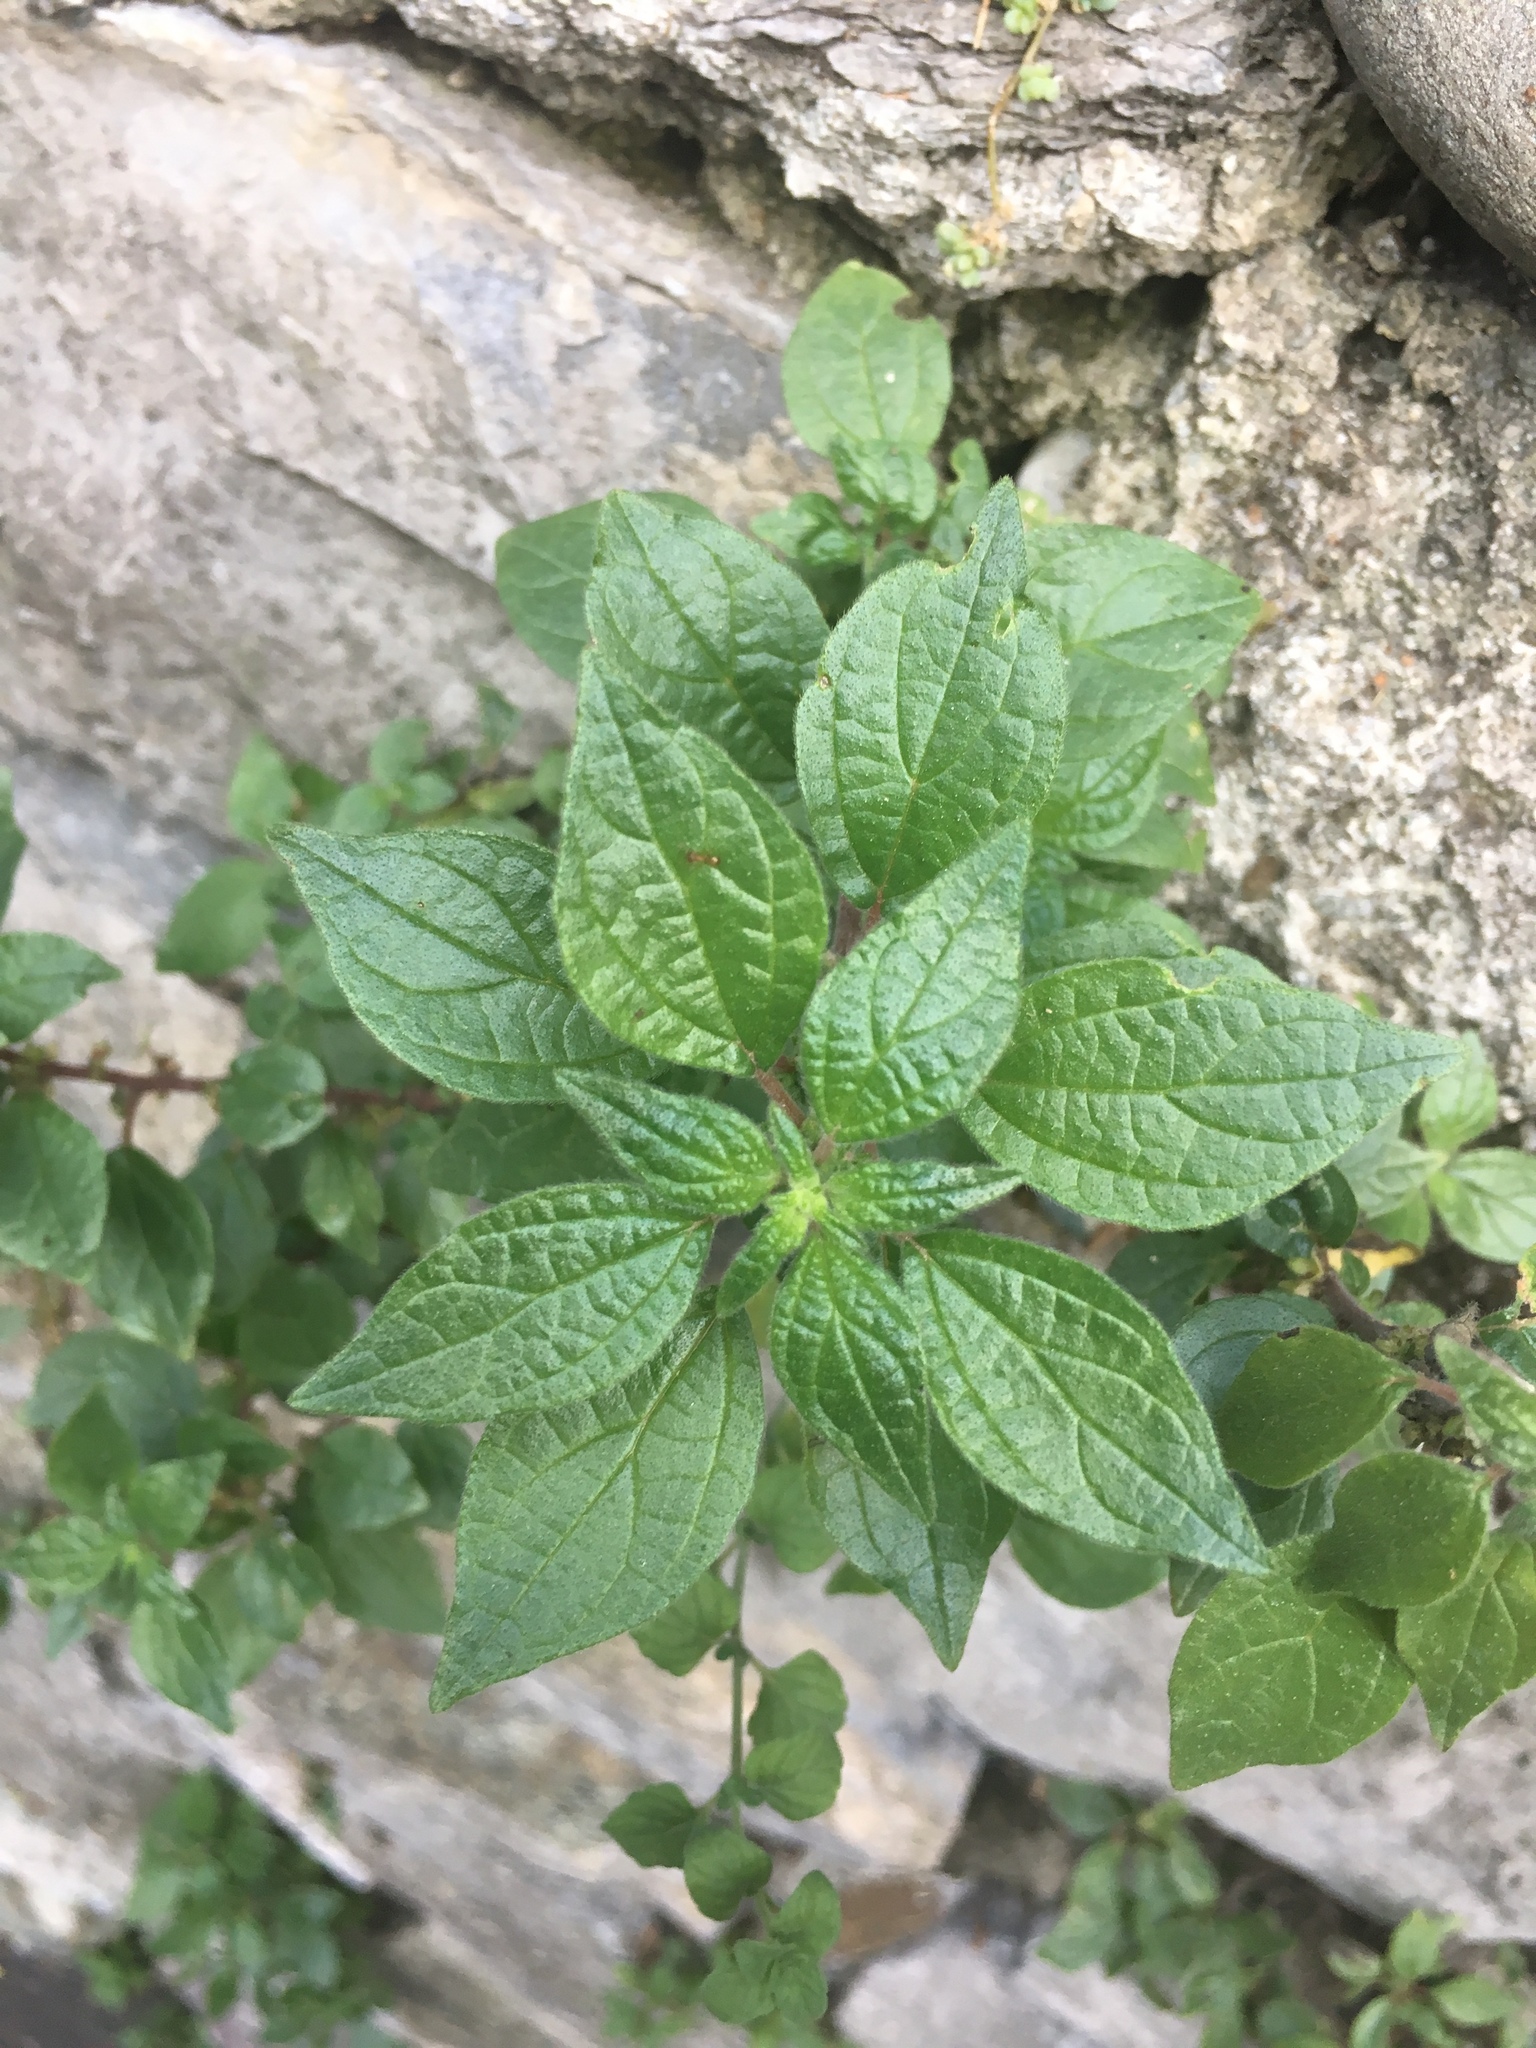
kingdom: Plantae
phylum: Tracheophyta
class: Magnoliopsida
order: Rosales
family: Urticaceae
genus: Parietaria
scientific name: Parietaria judaica
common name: Pellitory-of-the-wall
